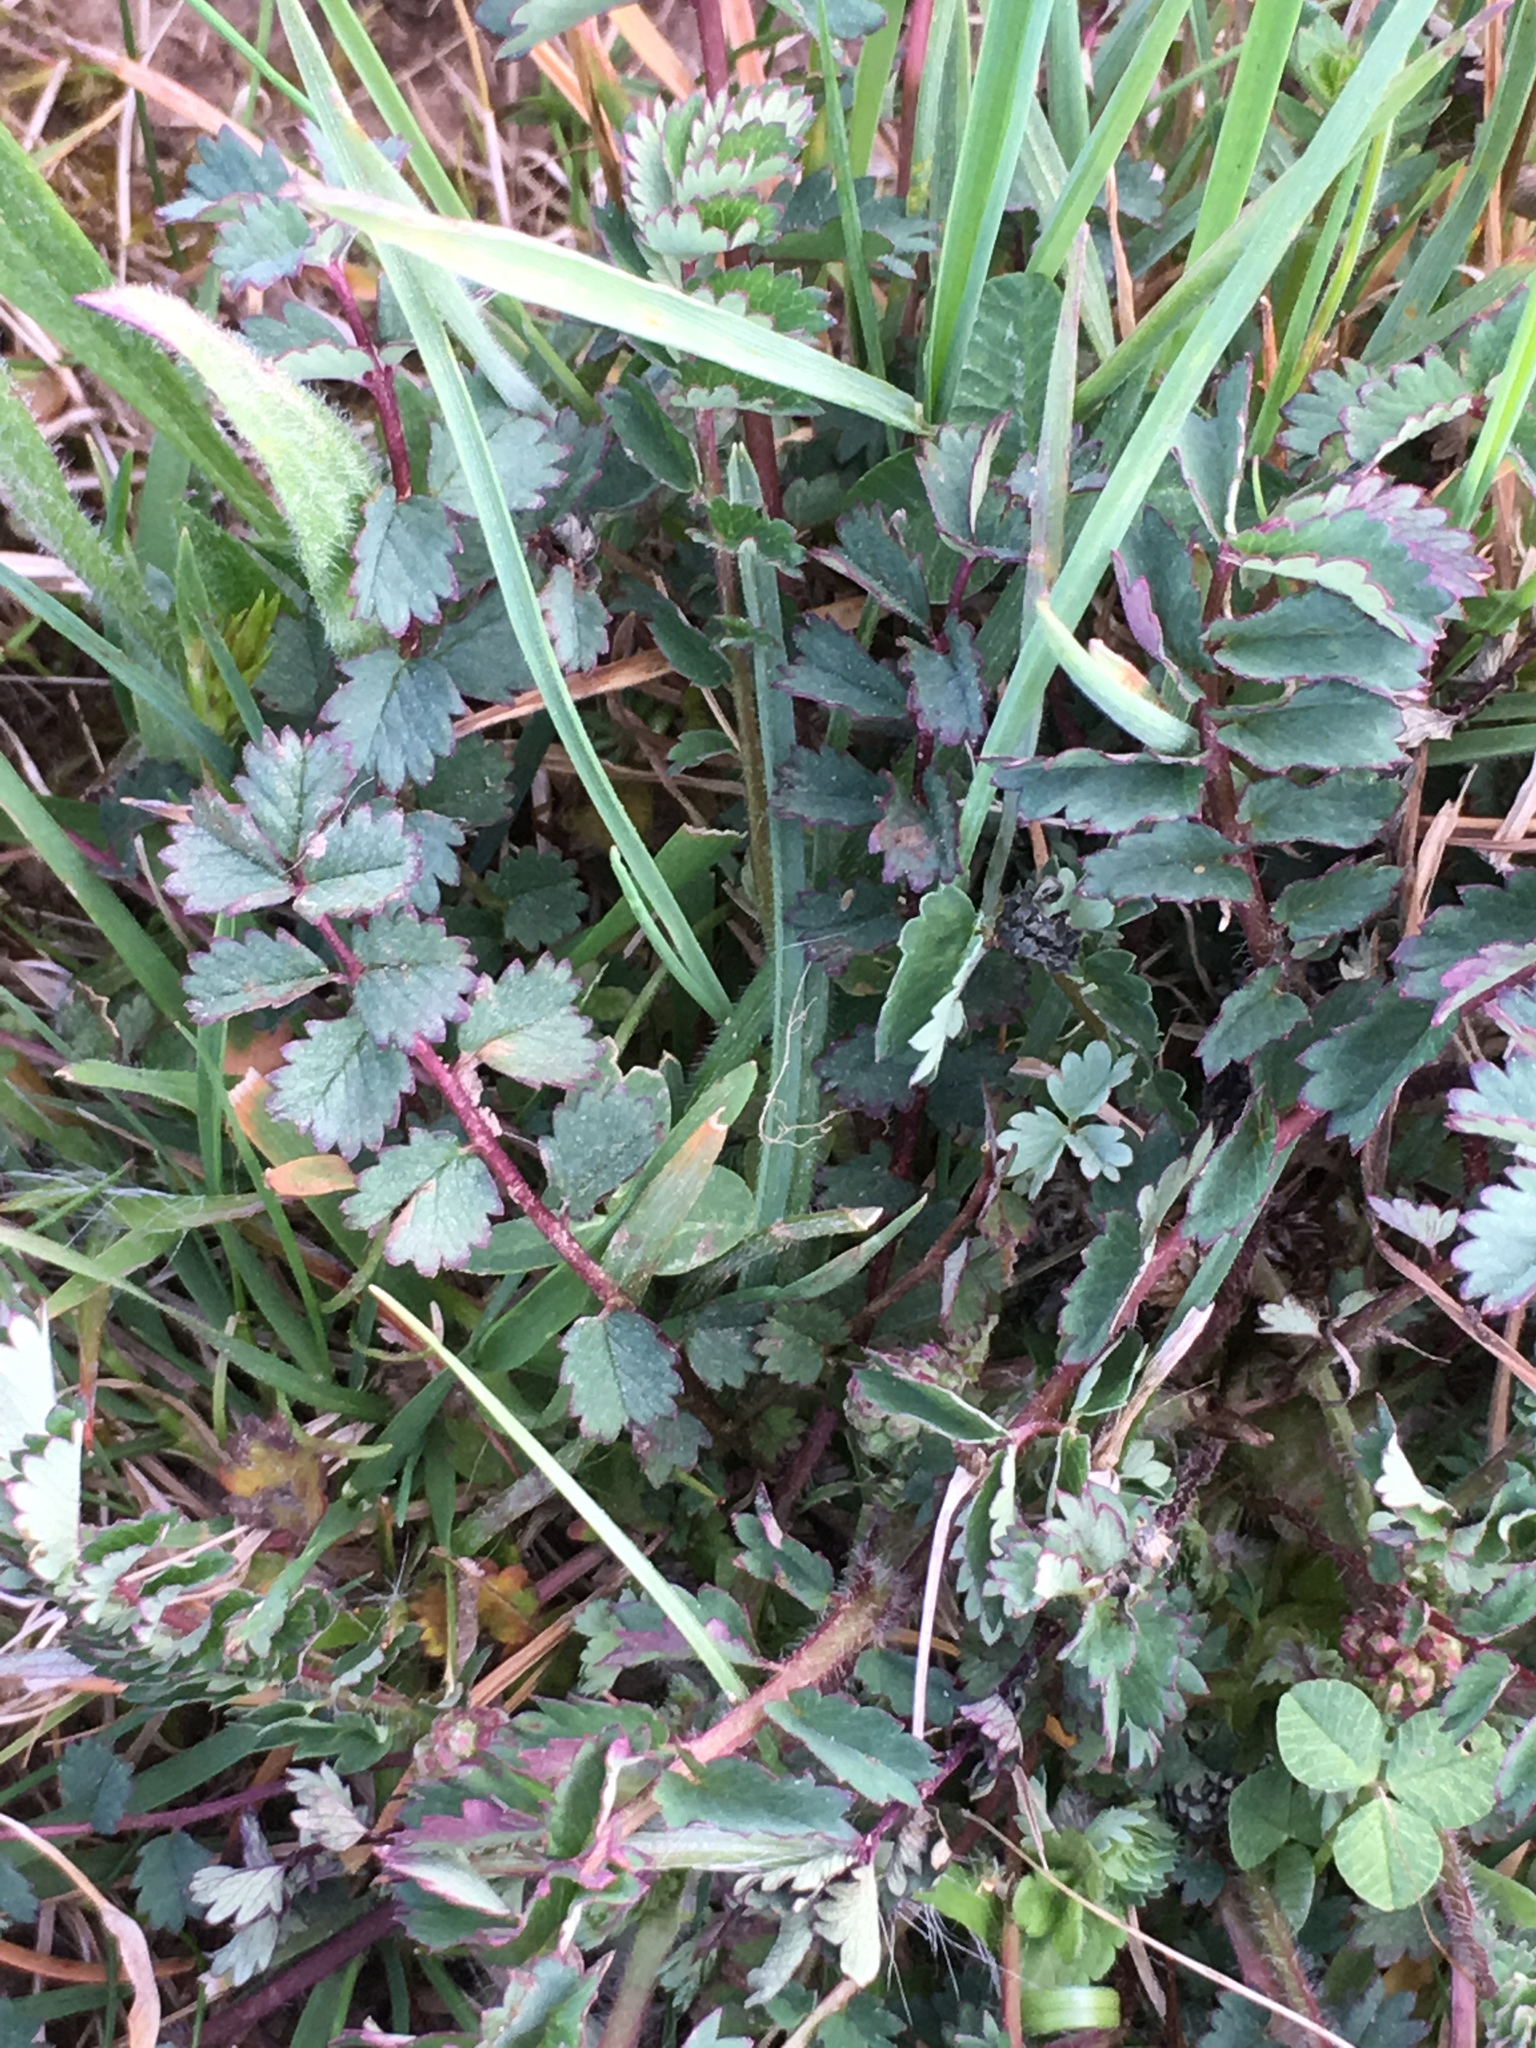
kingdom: Plantae
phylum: Tracheophyta
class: Magnoliopsida
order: Rosales
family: Rosaceae
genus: Poterium
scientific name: Poterium sanguisorba
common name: Salad burnet
